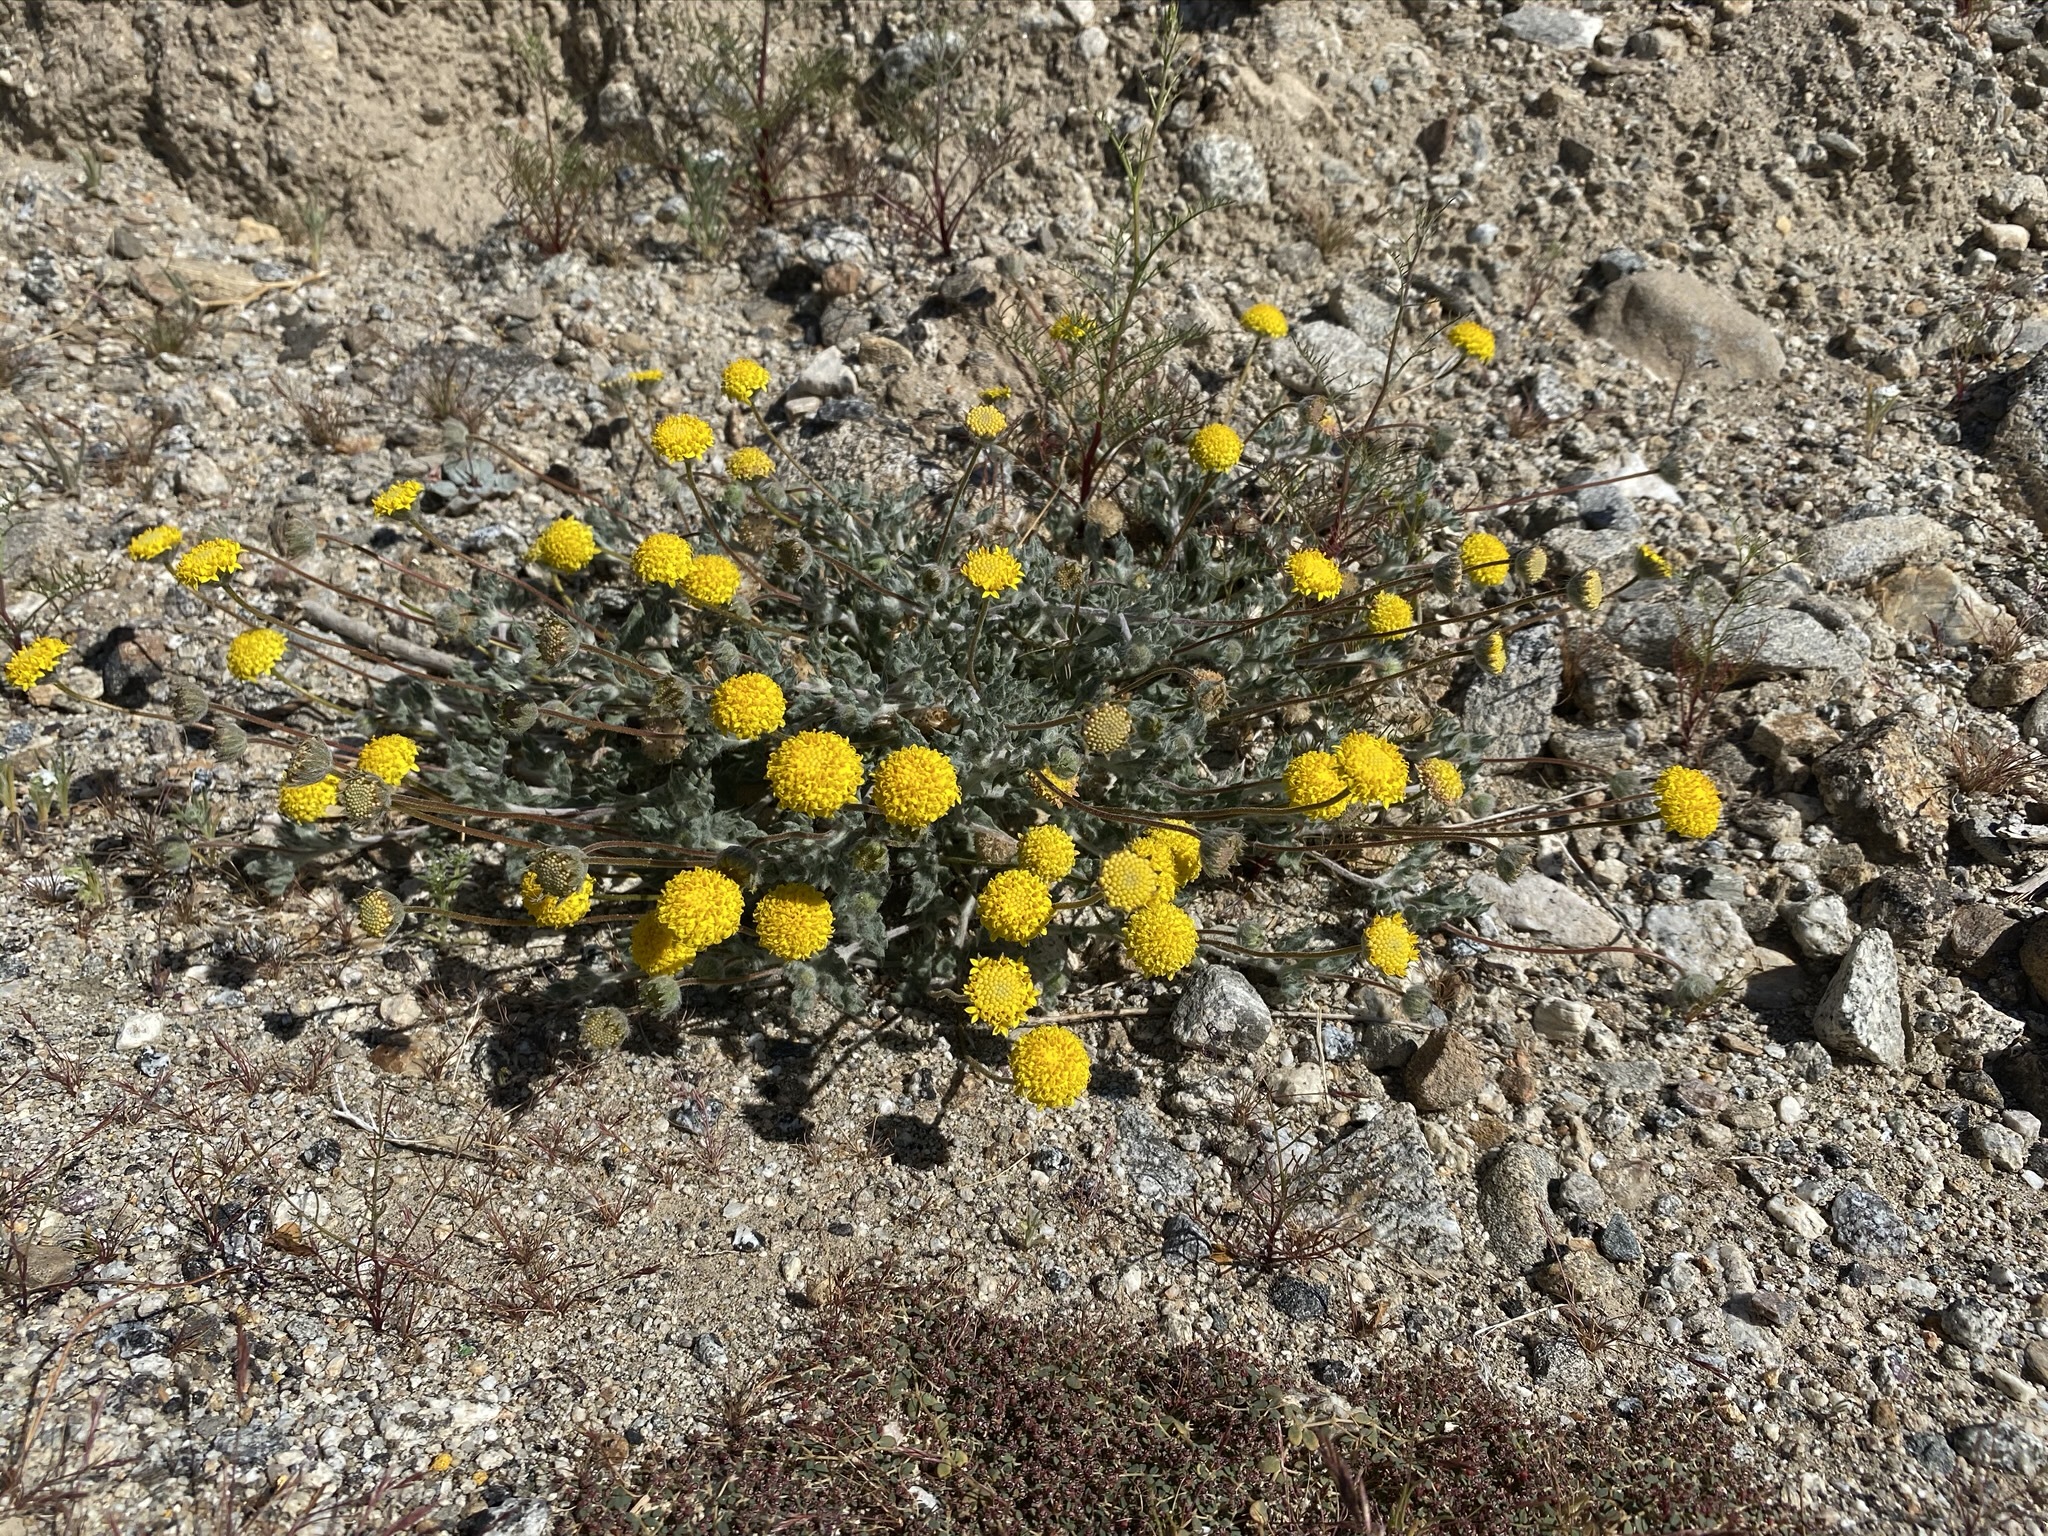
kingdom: Plantae
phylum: Tracheophyta
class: Magnoliopsida
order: Asterales
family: Asteraceae
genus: Trichoptilium
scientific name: Trichoptilium incisum
